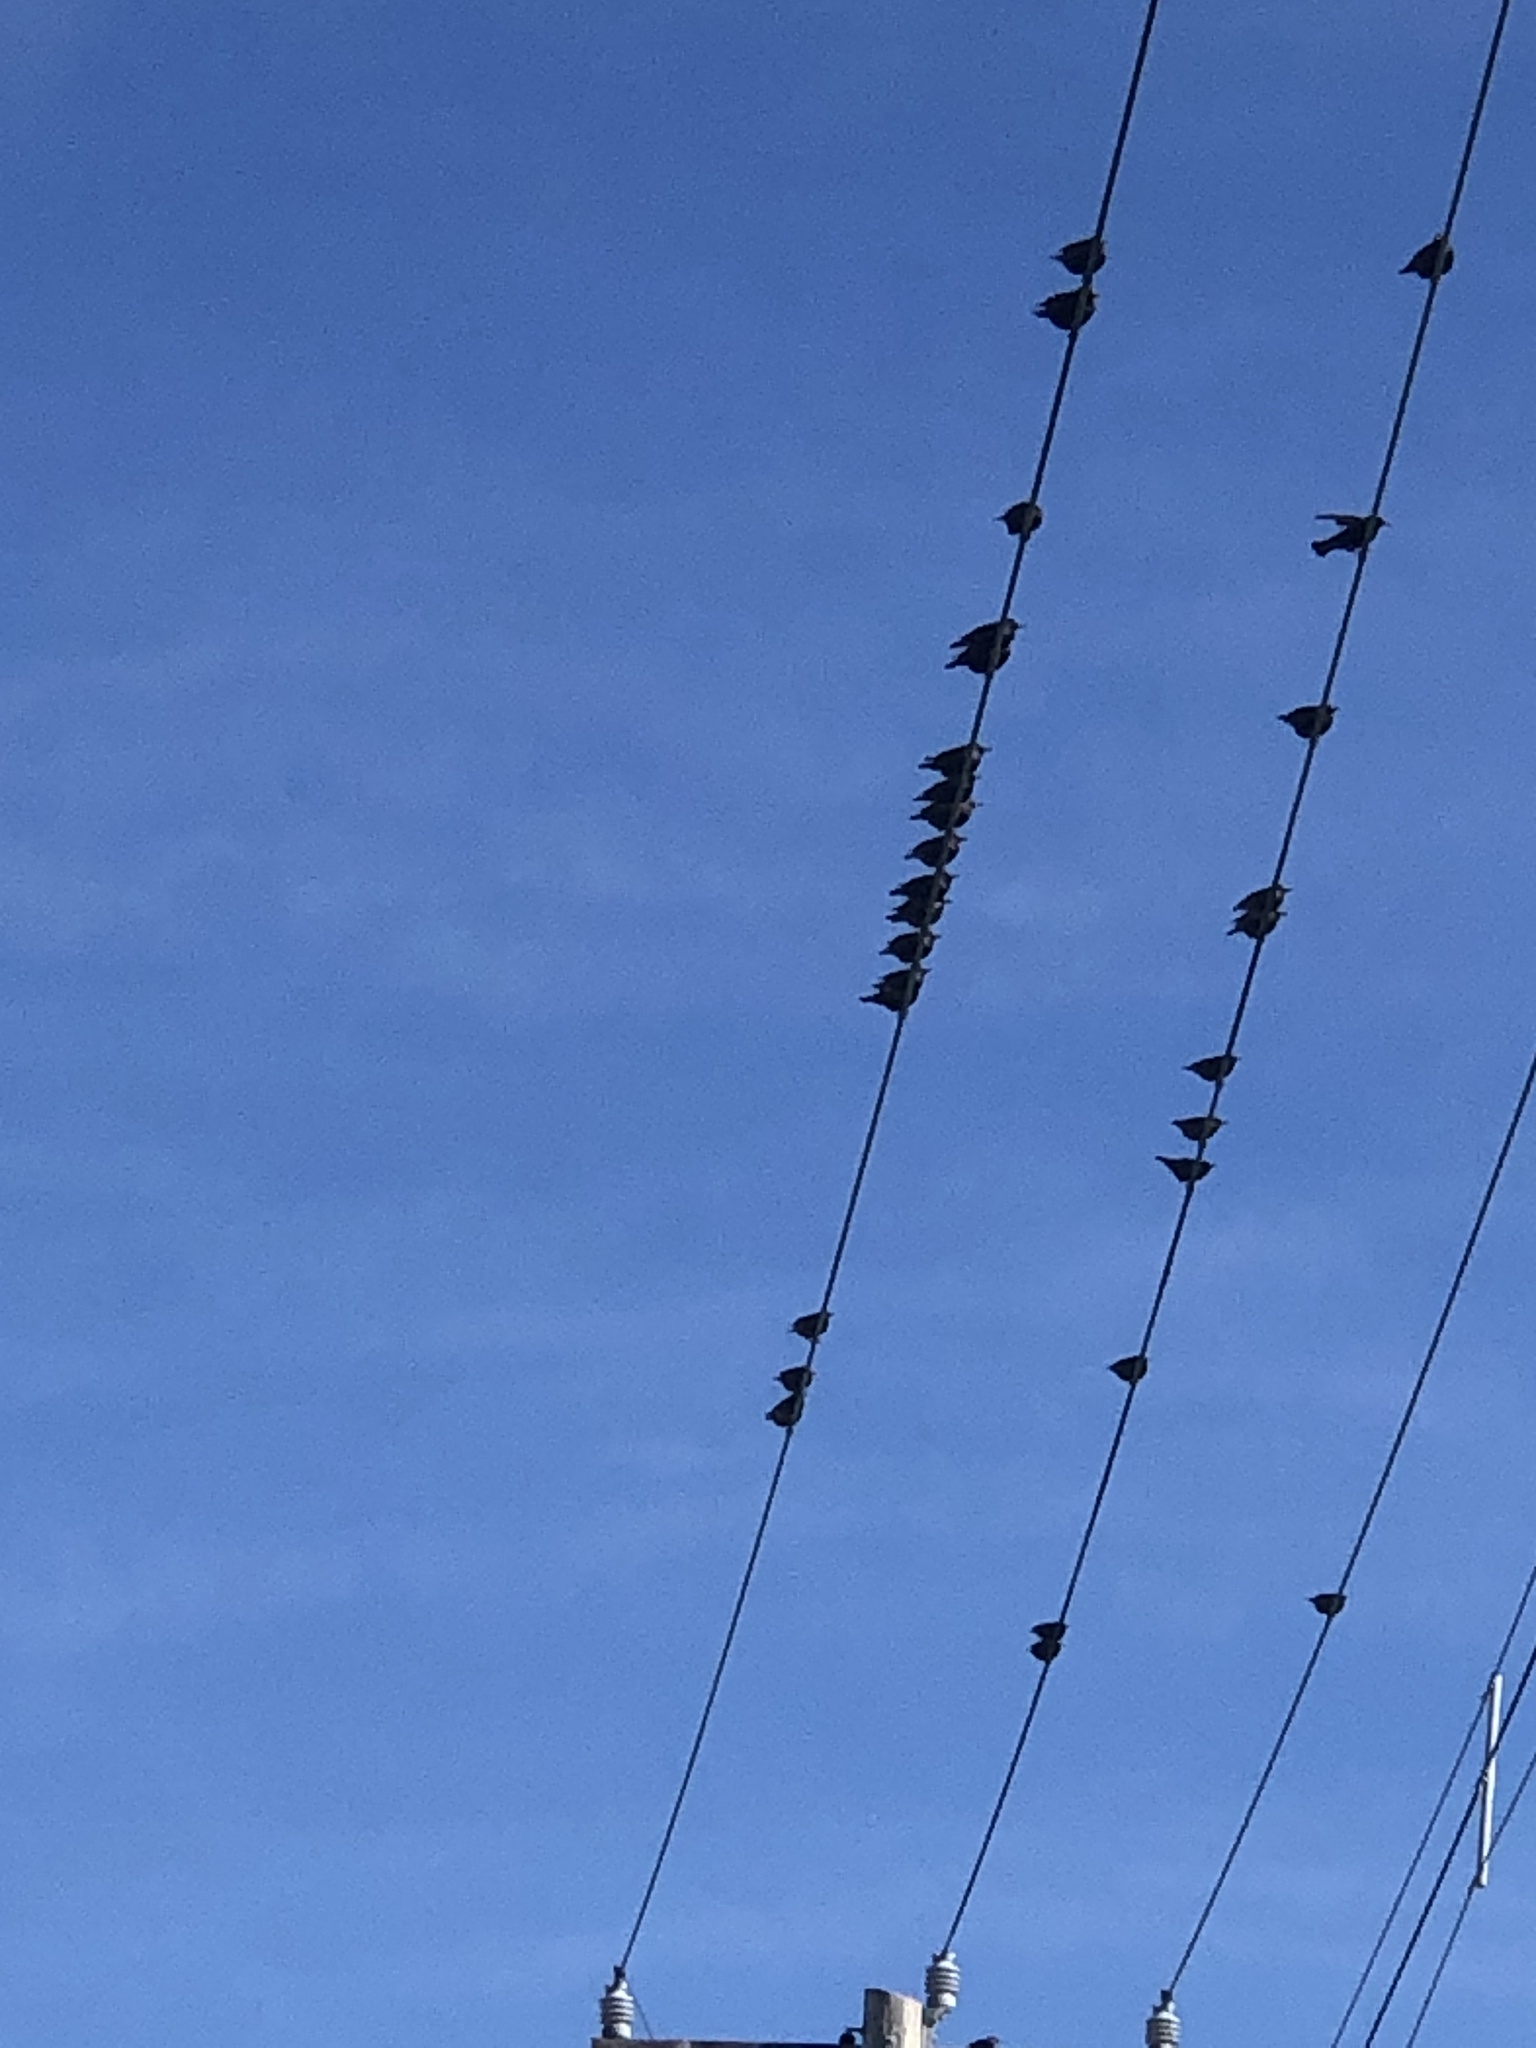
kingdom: Animalia
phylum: Chordata
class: Aves
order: Passeriformes
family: Sturnidae
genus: Sturnus
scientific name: Sturnus vulgaris
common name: Common starling
